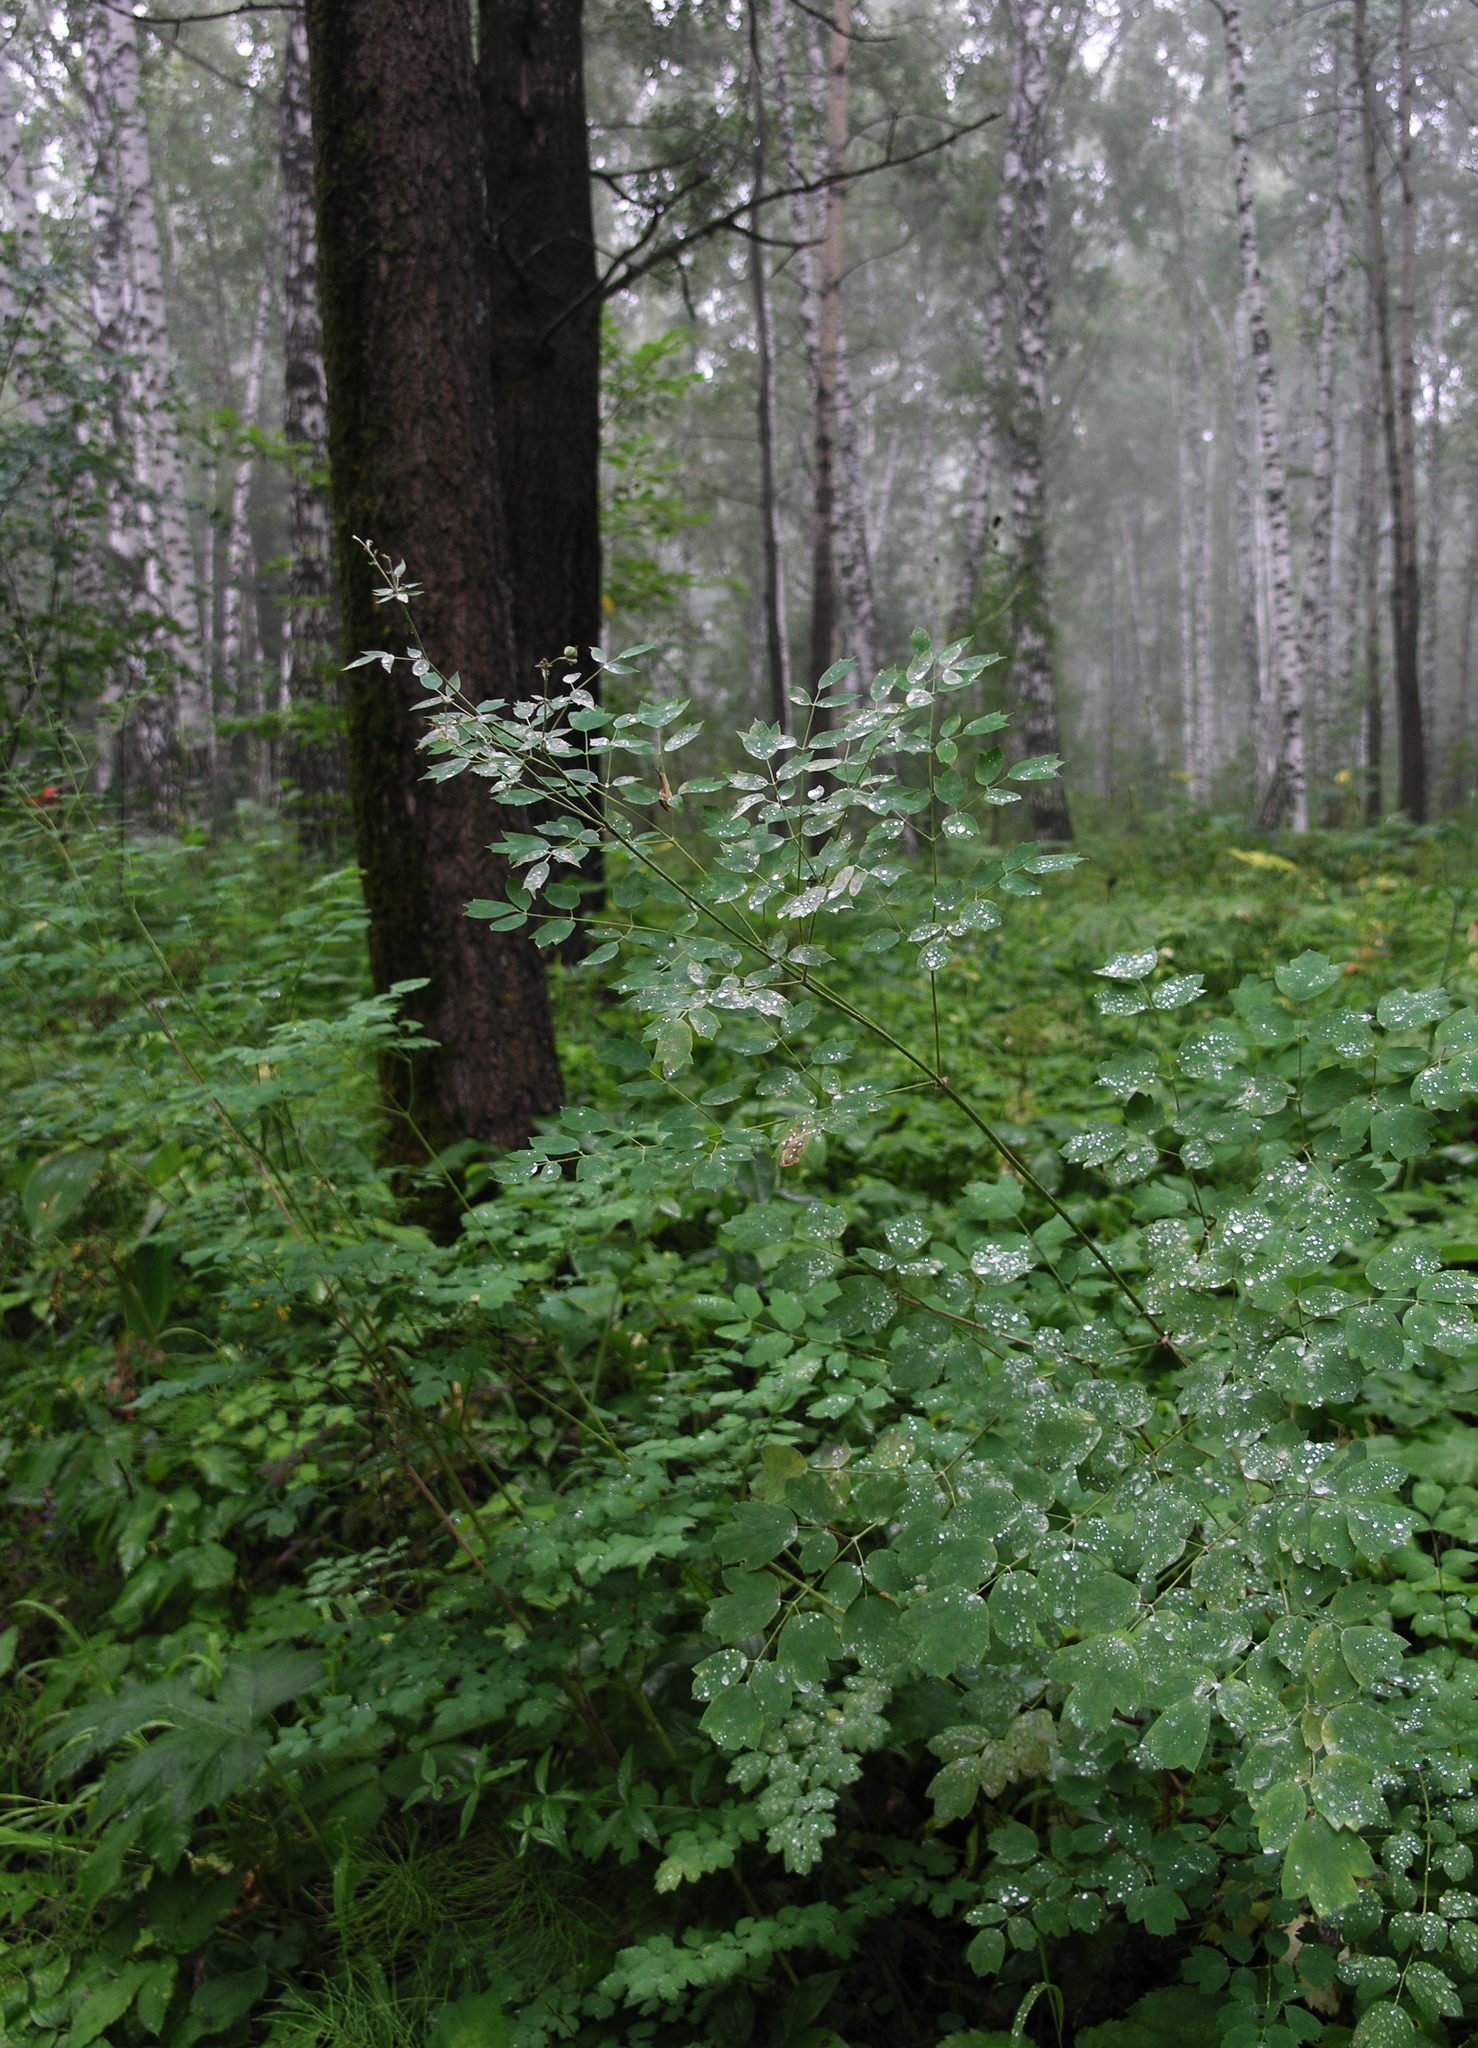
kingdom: Plantae
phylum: Tracheophyta
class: Magnoliopsida
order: Ranunculales
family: Ranunculaceae
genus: Thalictrum
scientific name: Thalictrum minus
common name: Lesser meadow-rue
